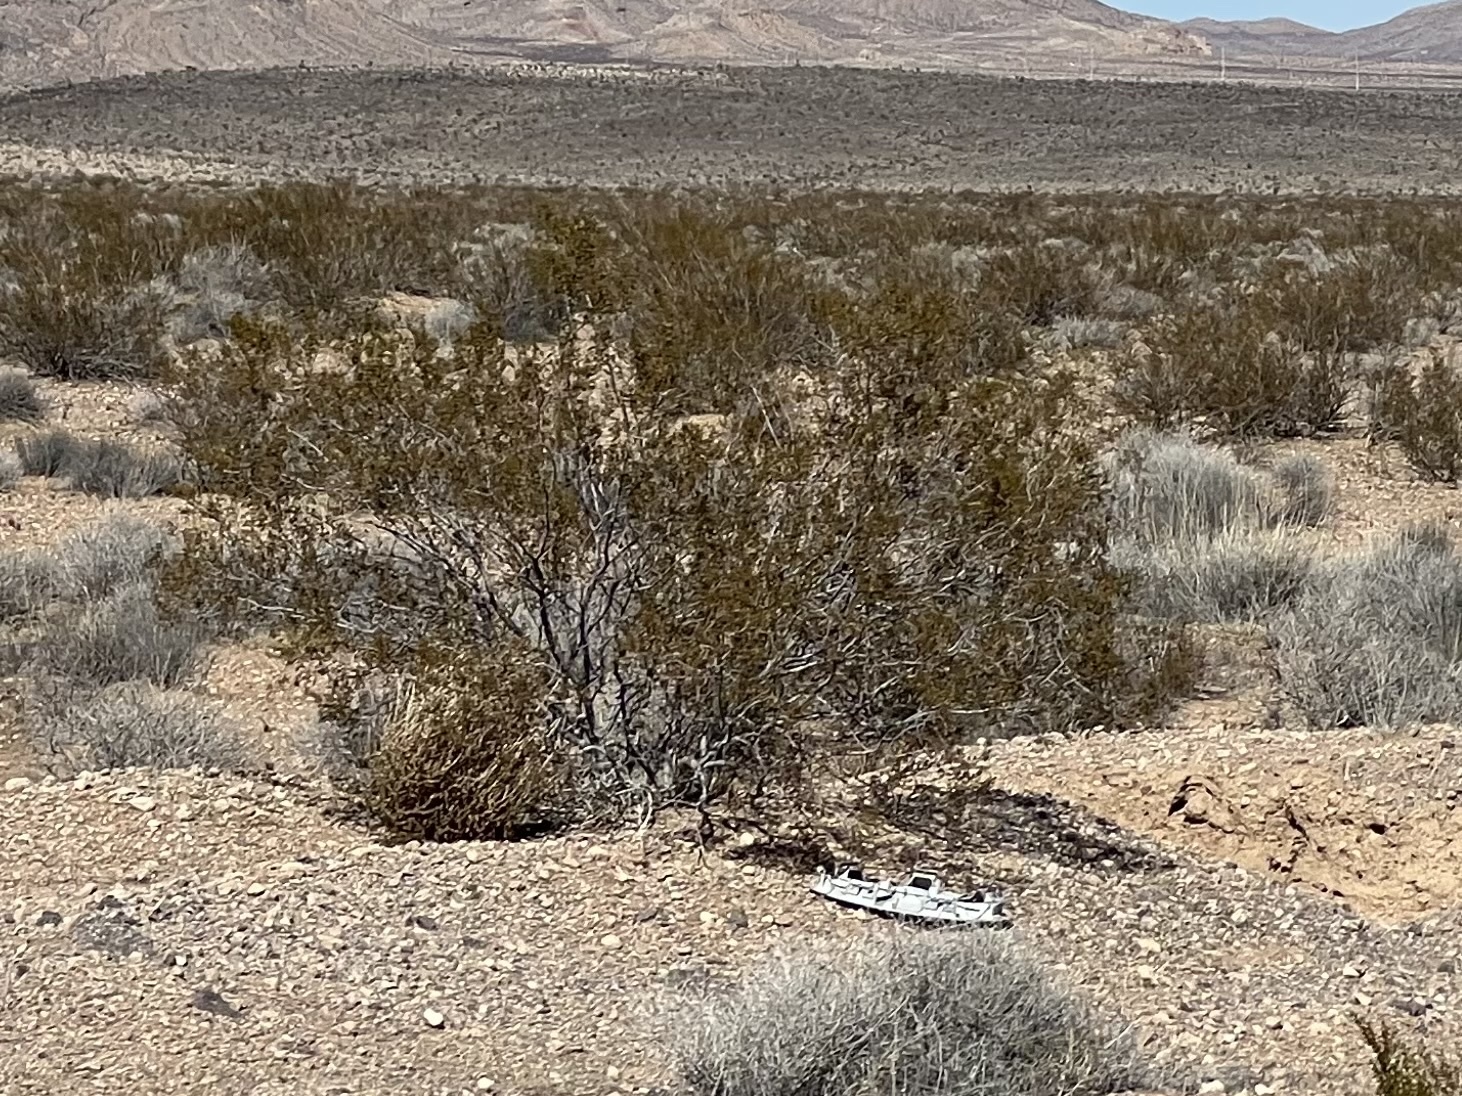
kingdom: Plantae
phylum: Tracheophyta
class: Magnoliopsida
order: Zygophyllales
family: Zygophyllaceae
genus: Larrea
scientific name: Larrea tridentata
